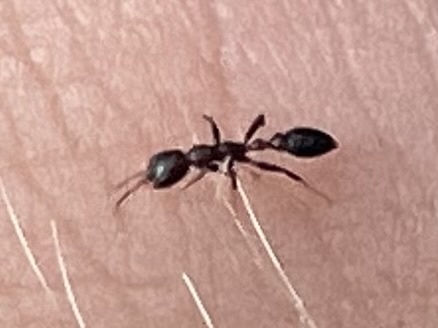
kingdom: Animalia
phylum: Arthropoda
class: Insecta
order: Hymenoptera
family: Formicidae
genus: Pseudomyrmex
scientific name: Pseudomyrmex ejectus
